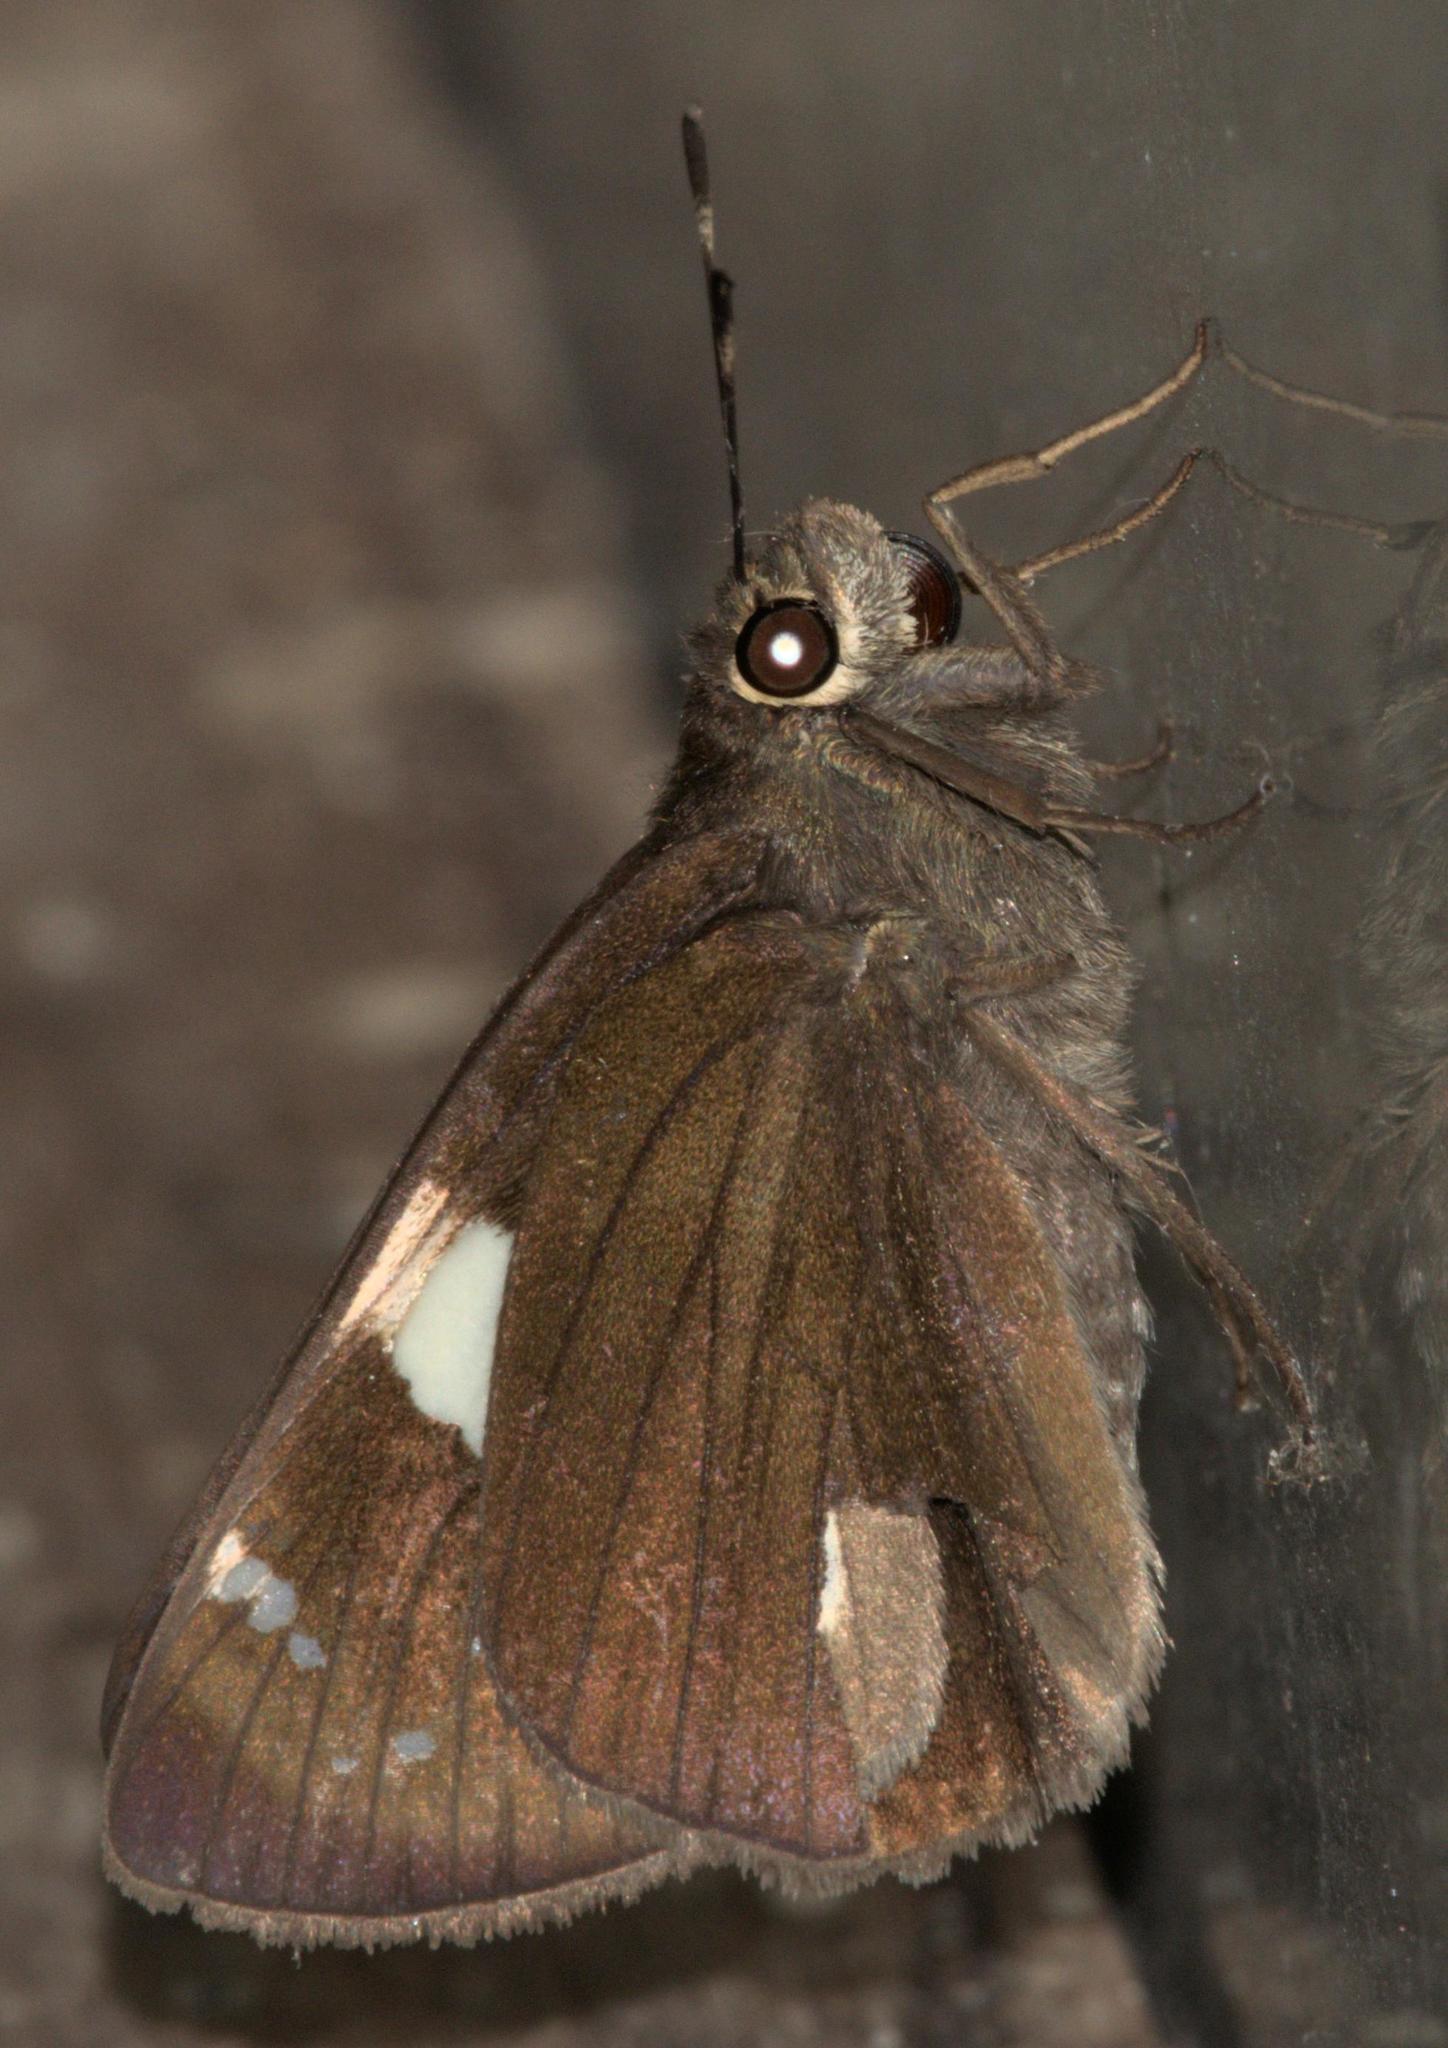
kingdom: Animalia
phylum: Arthropoda
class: Insecta
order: Lepidoptera
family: Hesperiidae
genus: Notocrypta
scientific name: Notocrypta curvifascia
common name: Restricted demon
